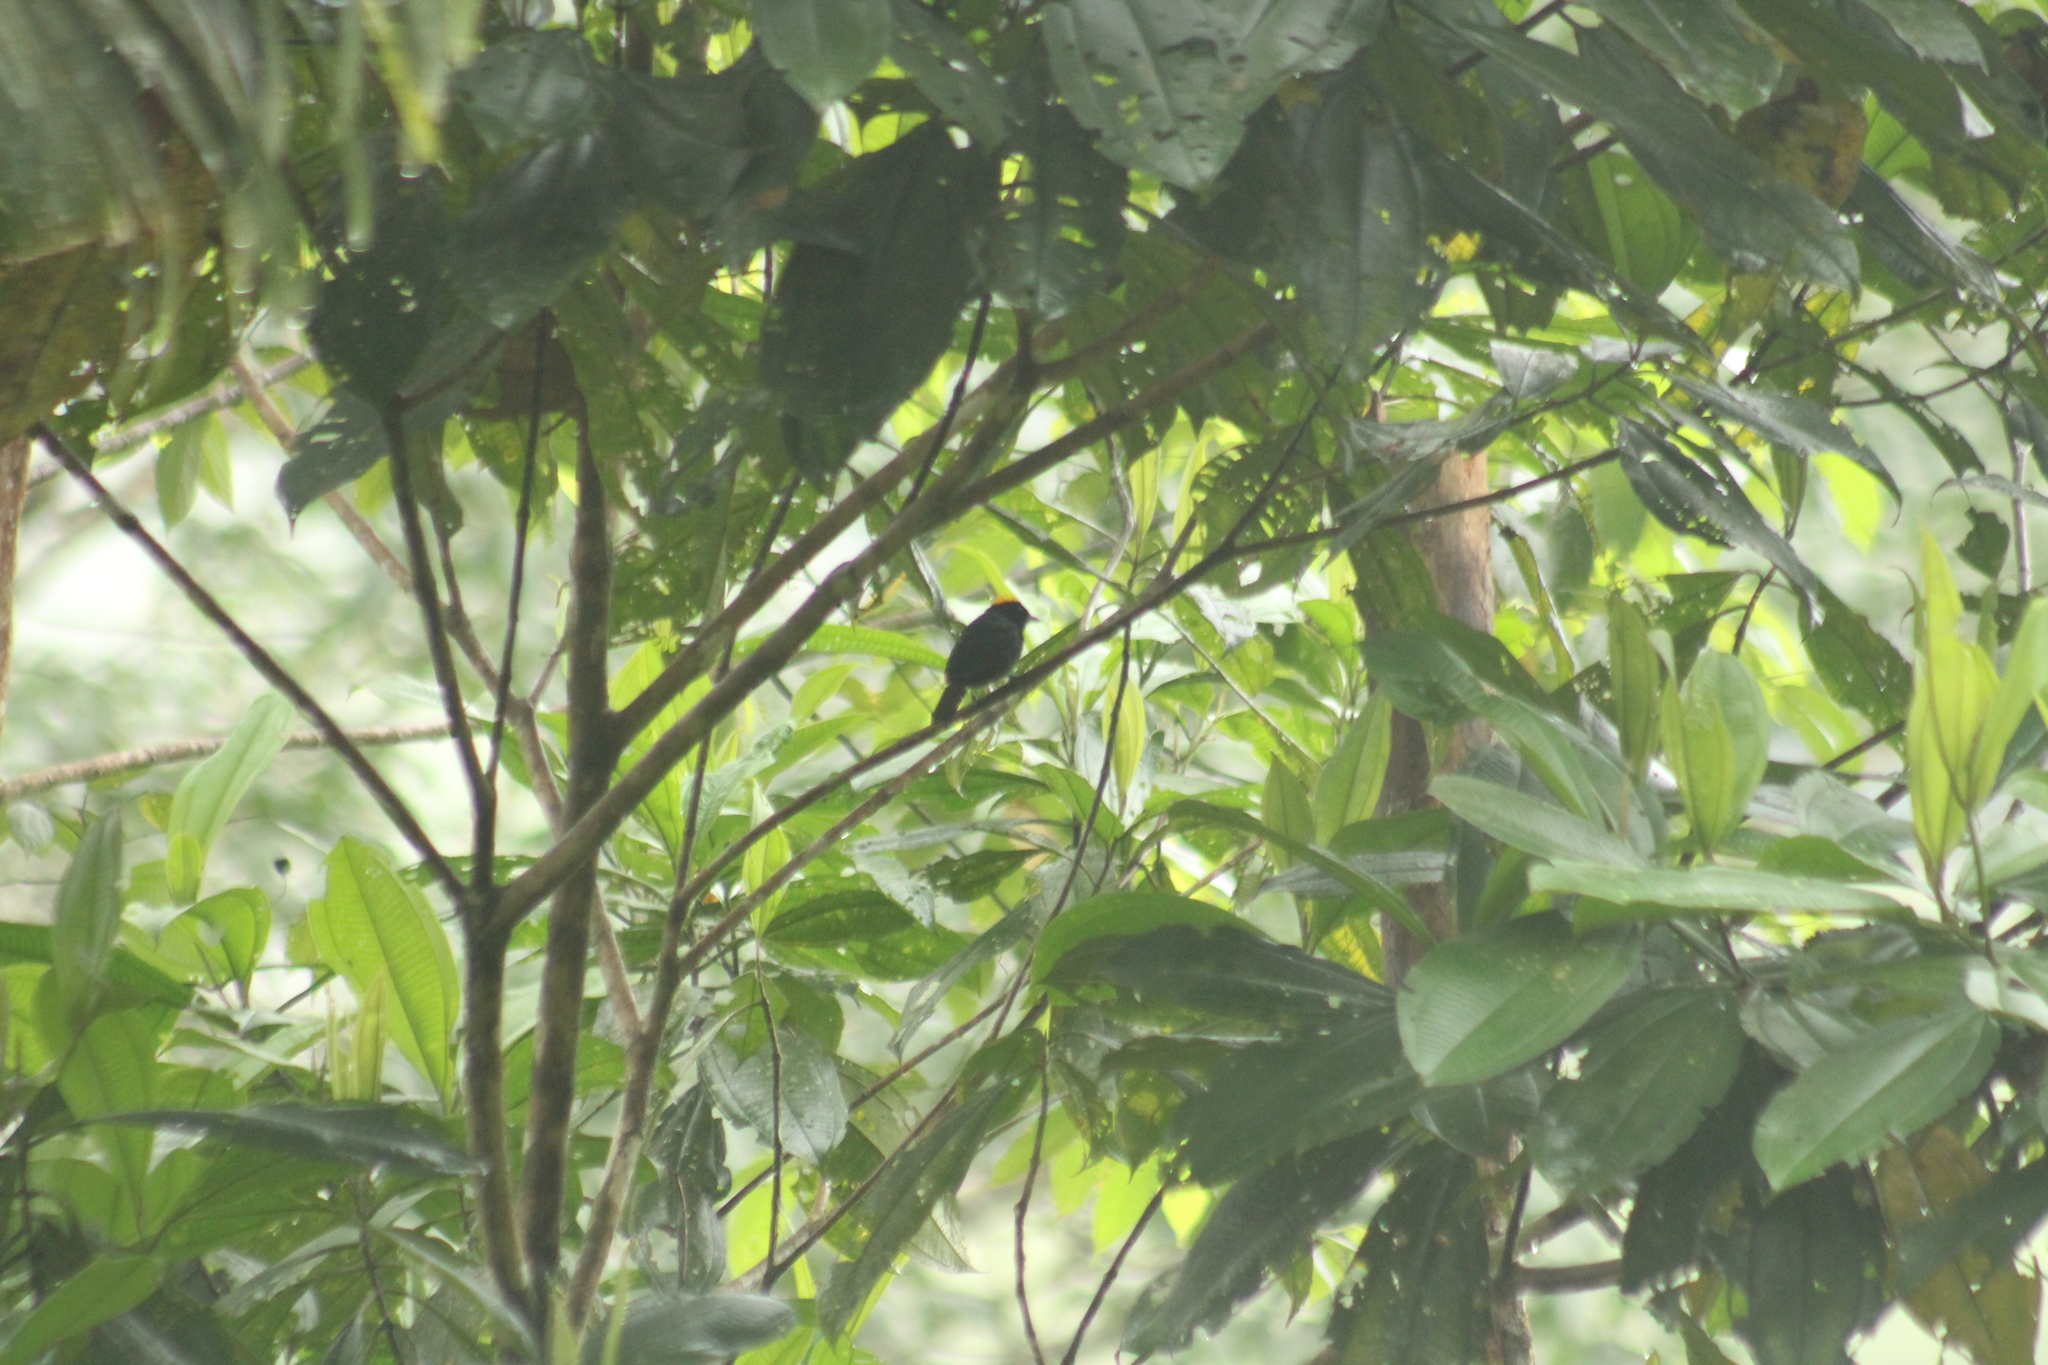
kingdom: Animalia
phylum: Chordata
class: Aves
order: Passeriformes
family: Thraupidae
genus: Tachyphonus
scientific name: Tachyphonus delatrii
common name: Tawny-crested tanager
